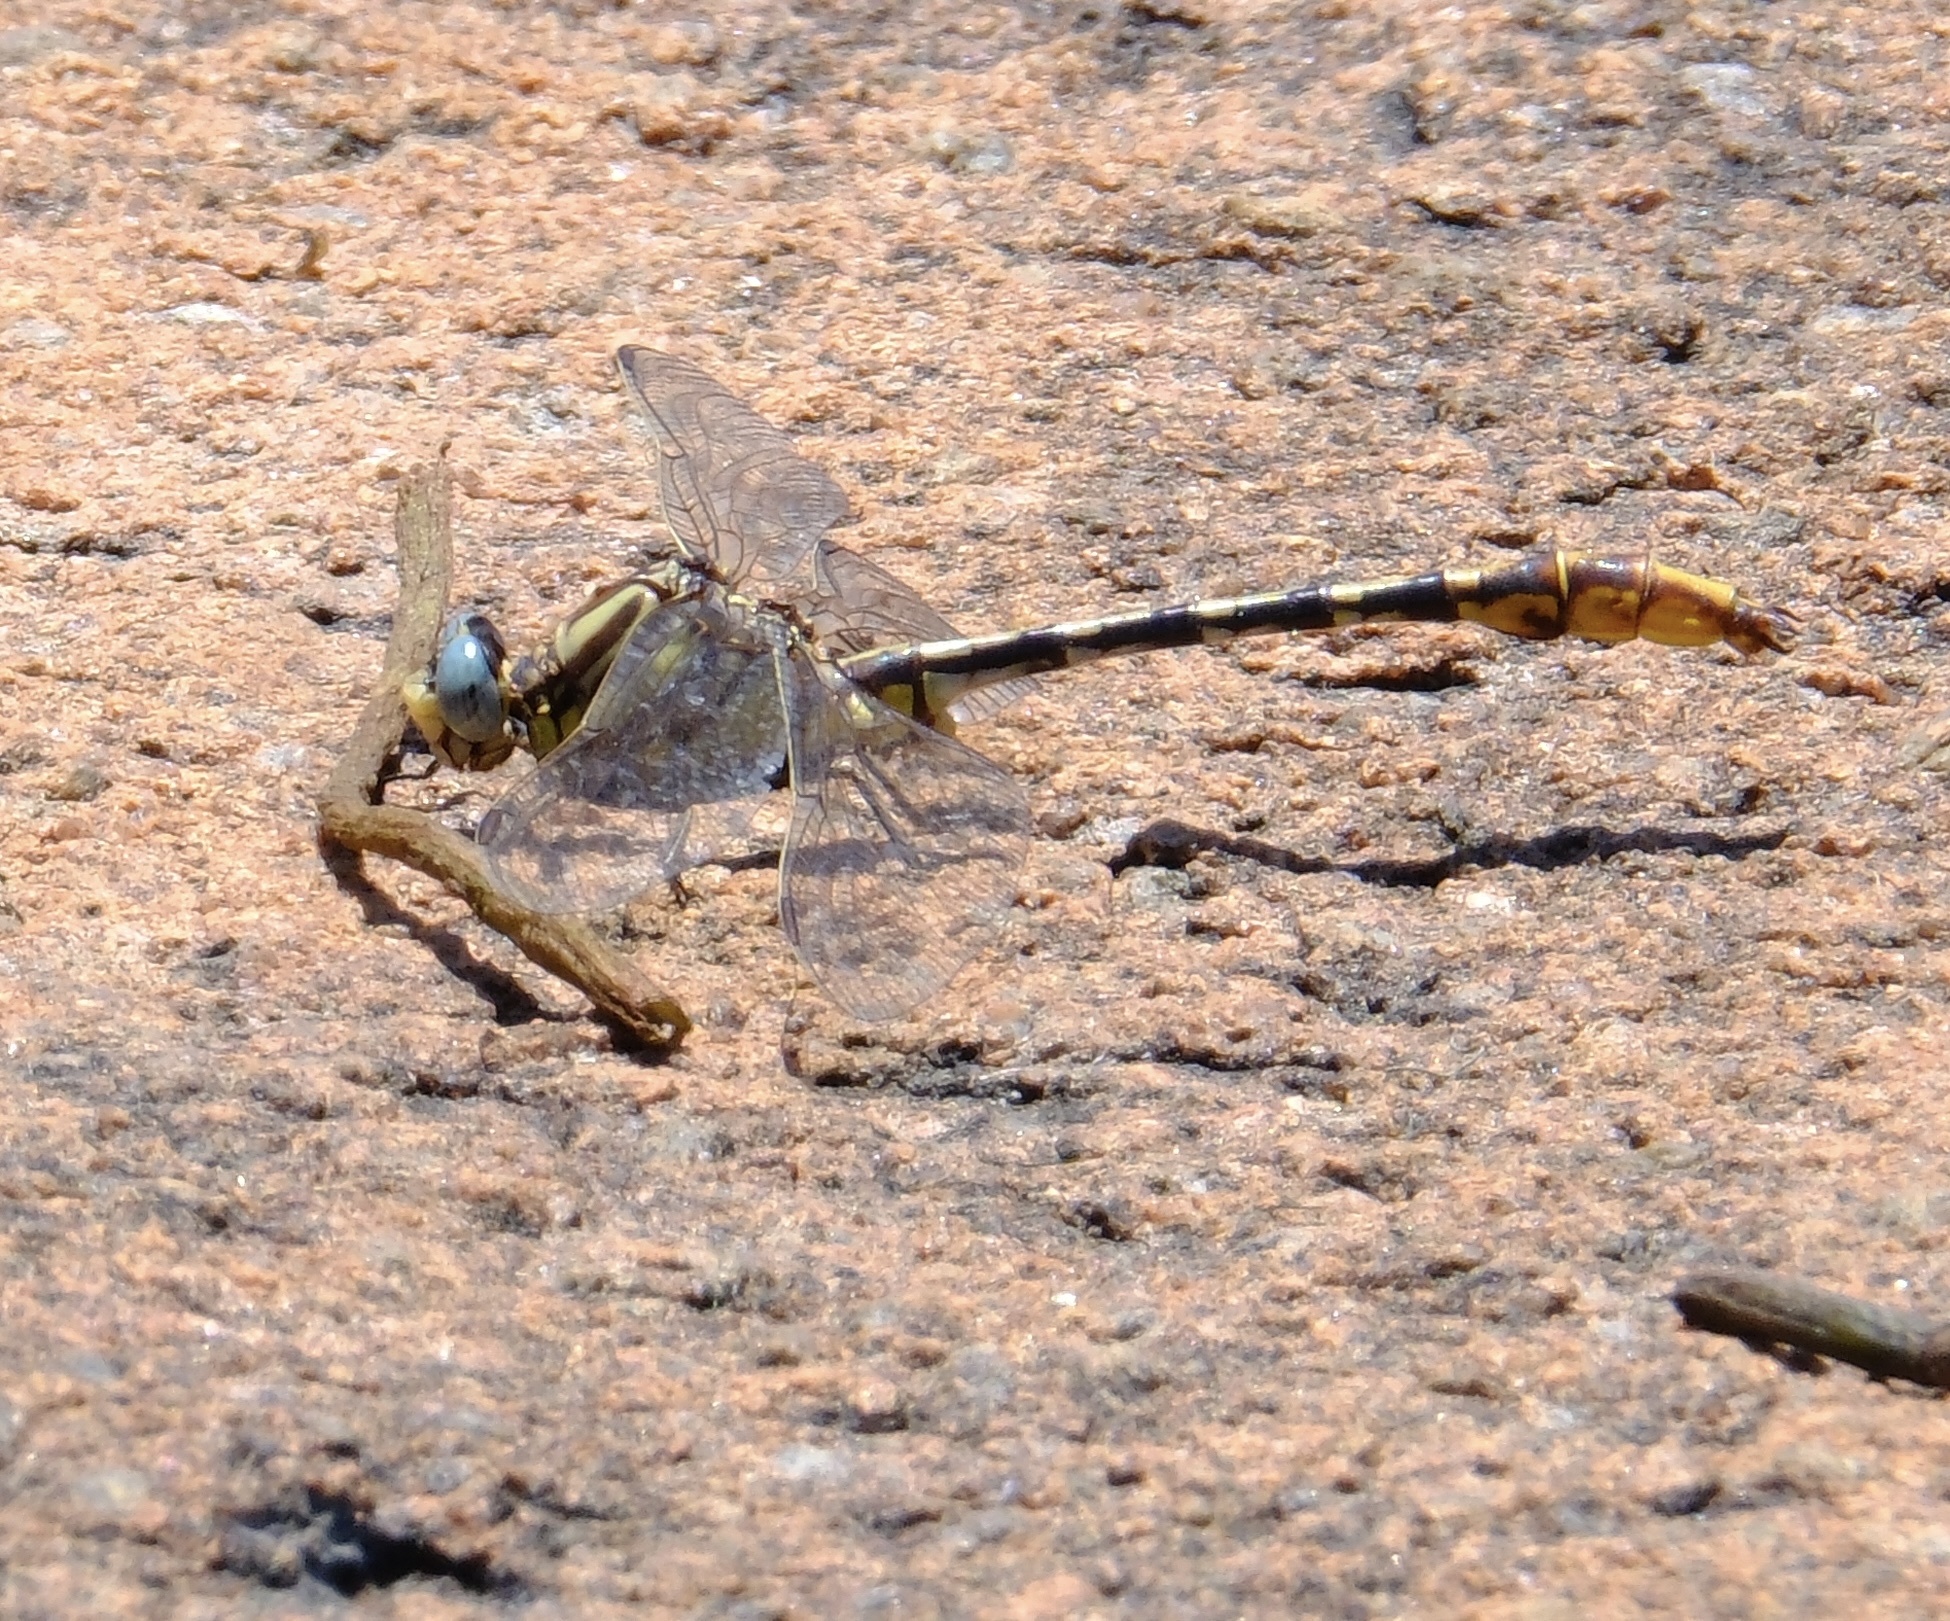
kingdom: Animalia
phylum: Arthropoda
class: Insecta
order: Odonata
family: Gomphidae
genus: Phanogomphus
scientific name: Phanogomphus militaris
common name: Sulphur-tipped clubtail
